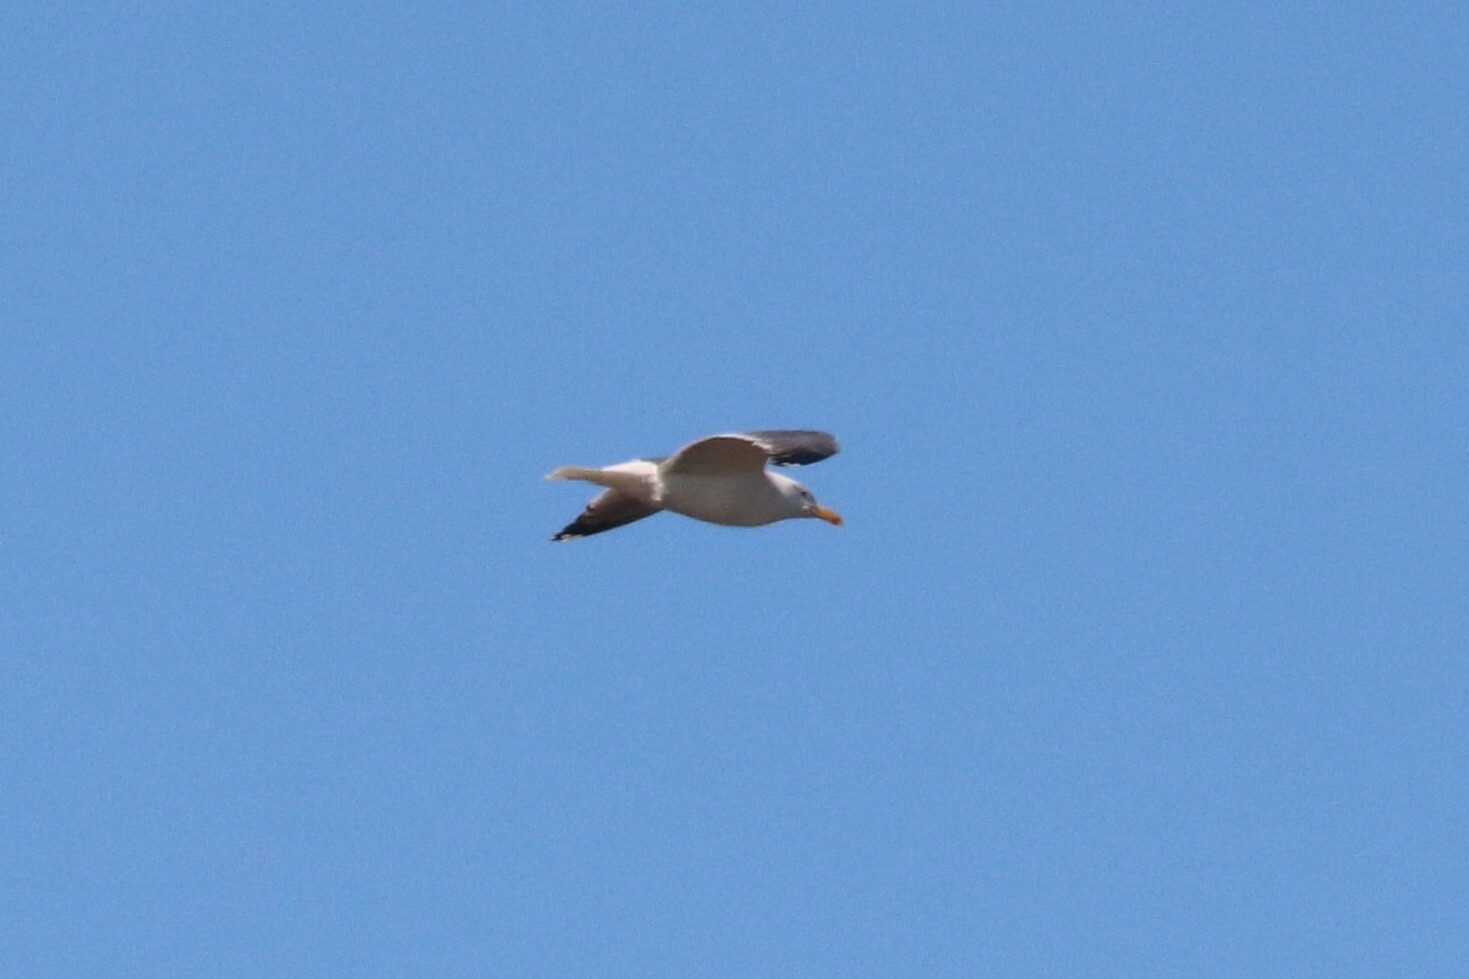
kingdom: Animalia
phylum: Chordata
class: Aves
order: Charadriiformes
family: Laridae
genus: Larus
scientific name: Larus fuscus
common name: Lesser black-backed gull
